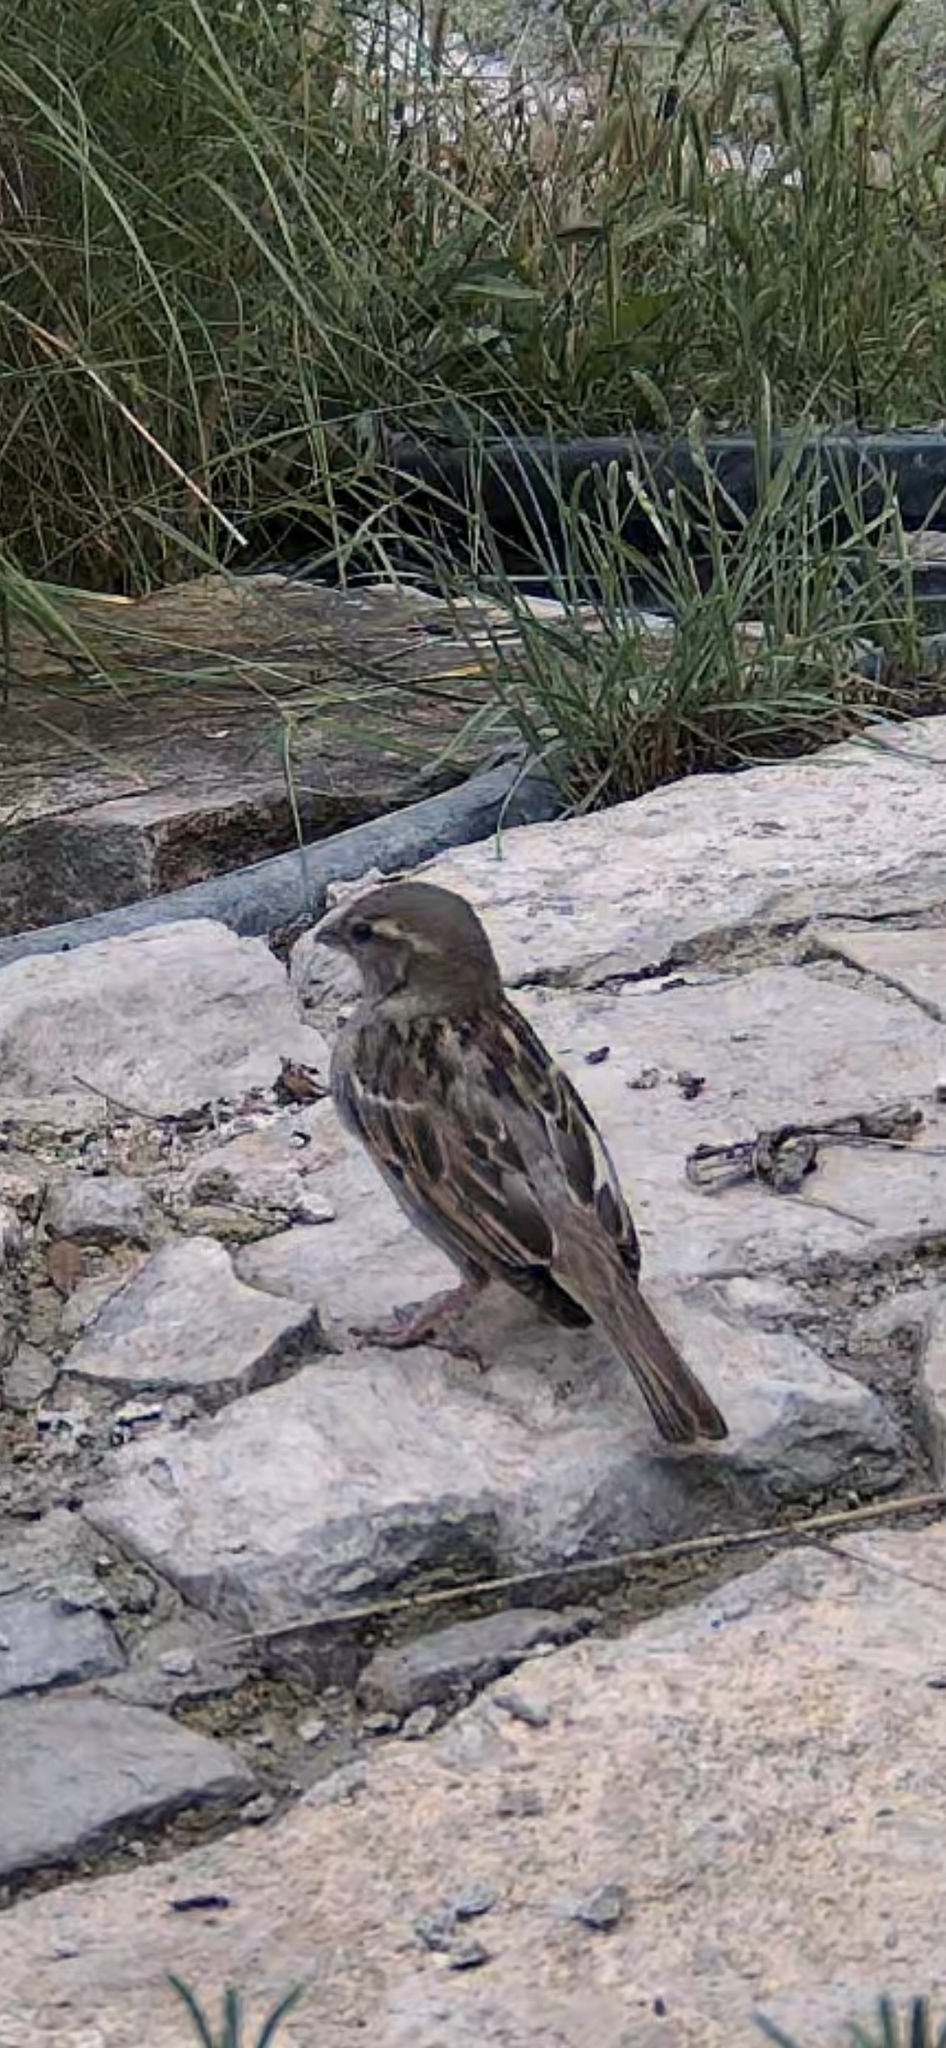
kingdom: Animalia
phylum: Chordata
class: Aves
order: Passeriformes
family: Passeridae
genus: Passer
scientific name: Passer domesticus
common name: House sparrow
